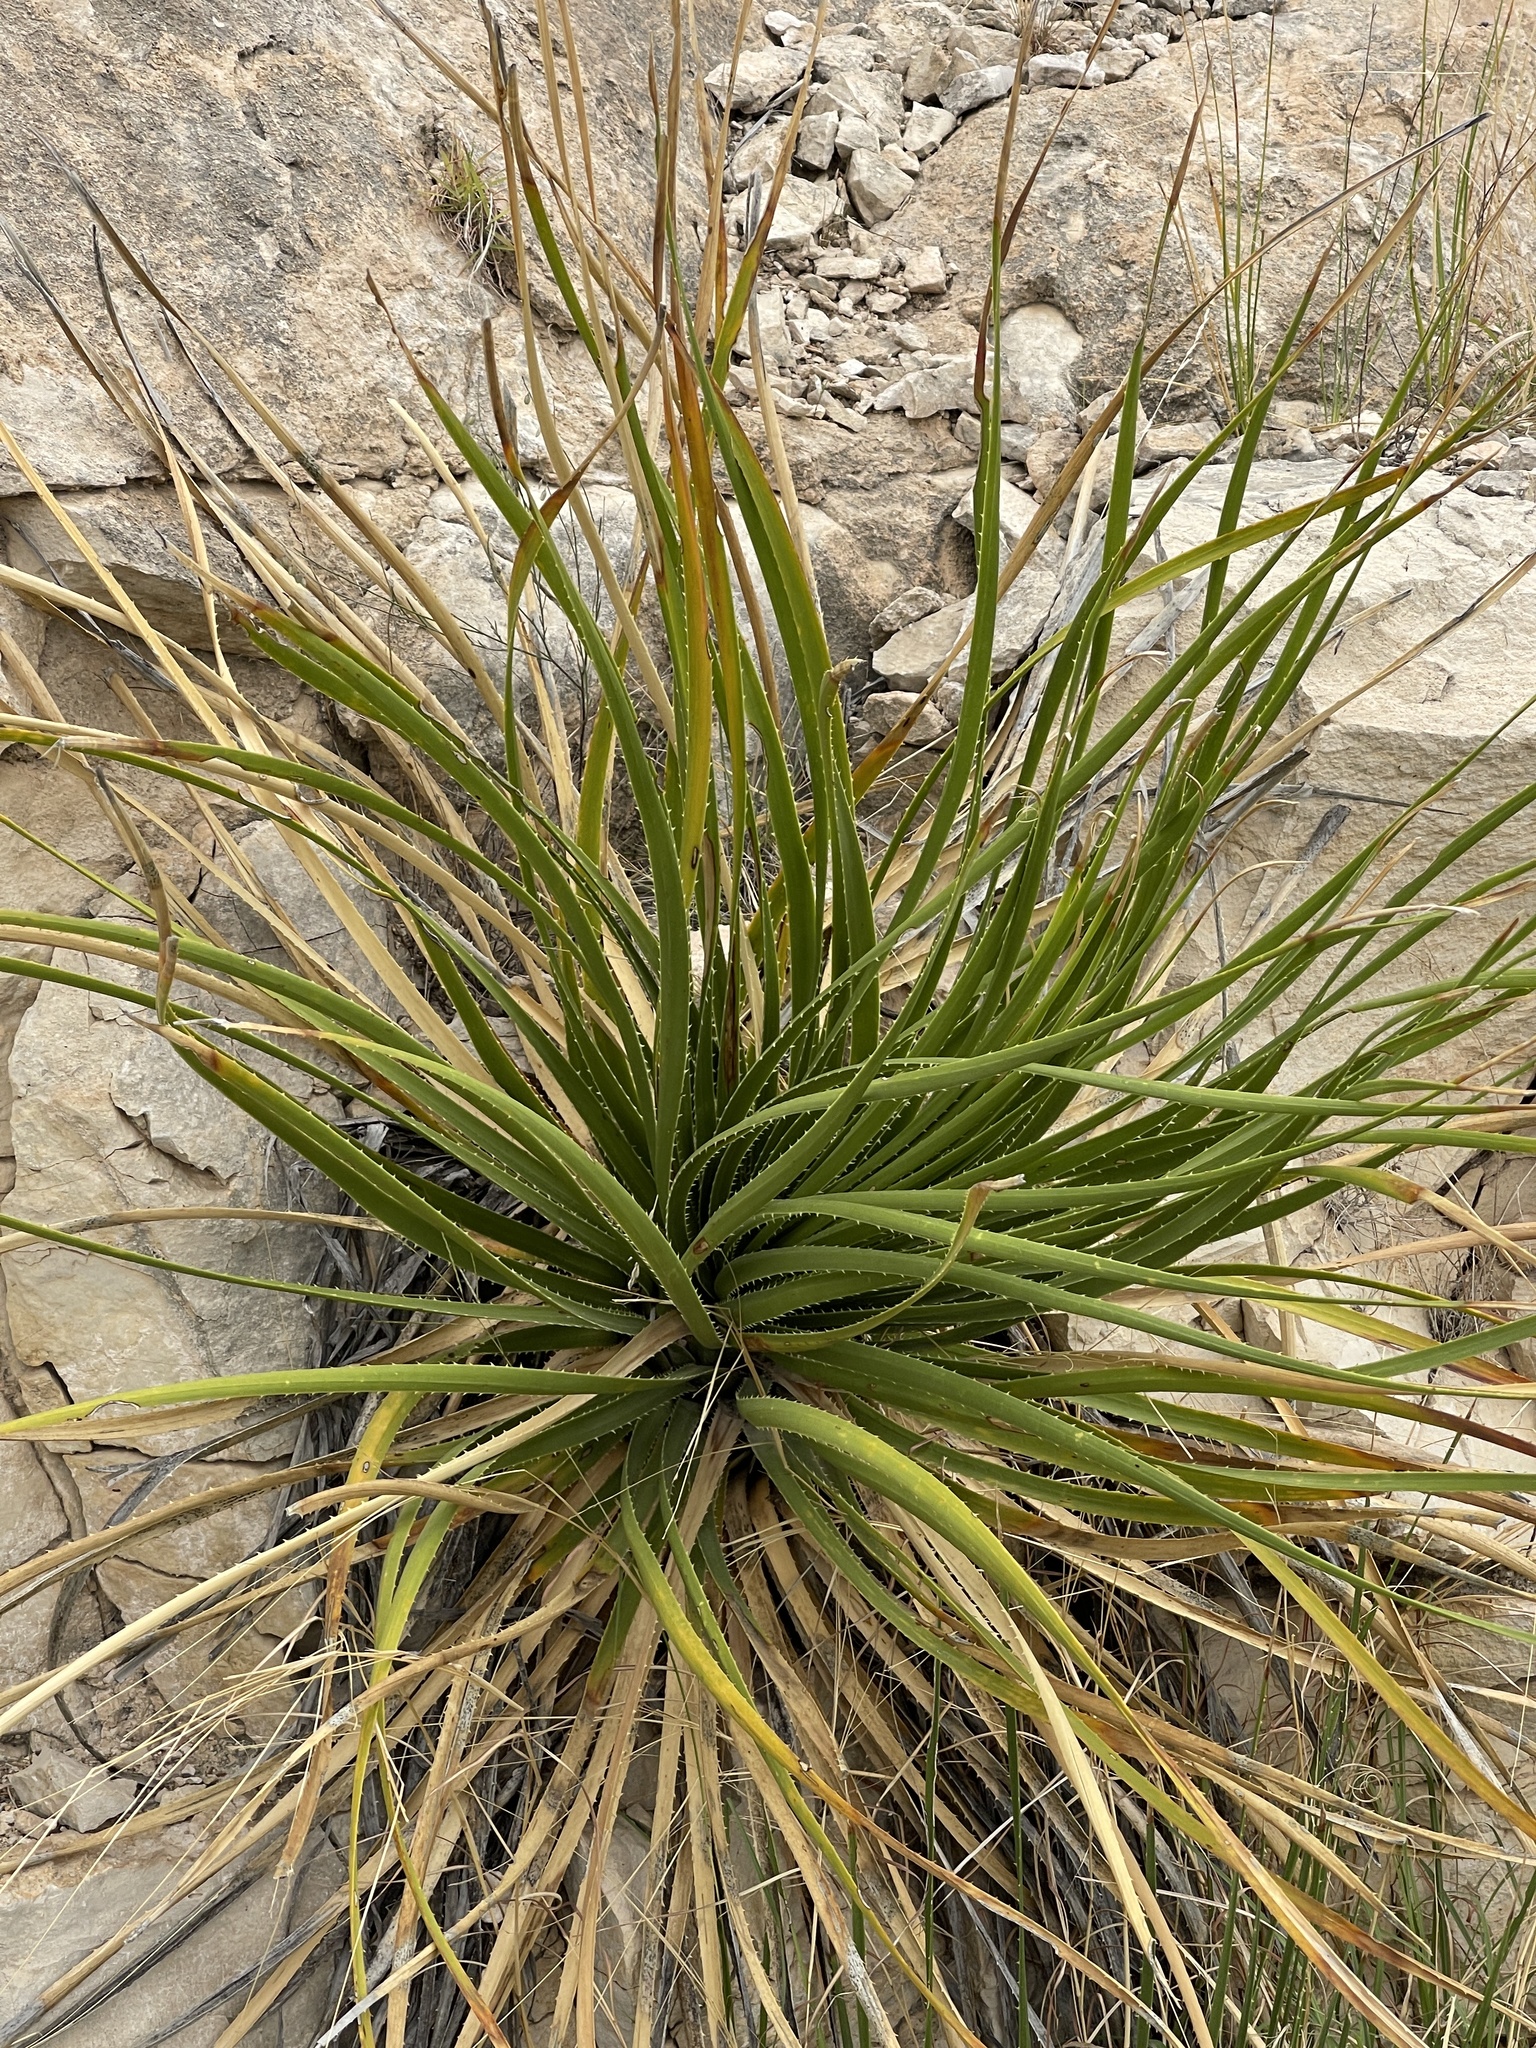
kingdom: Plantae
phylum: Tracheophyta
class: Liliopsida
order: Asparagales
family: Asparagaceae
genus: Dasylirion
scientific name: Dasylirion texanum
